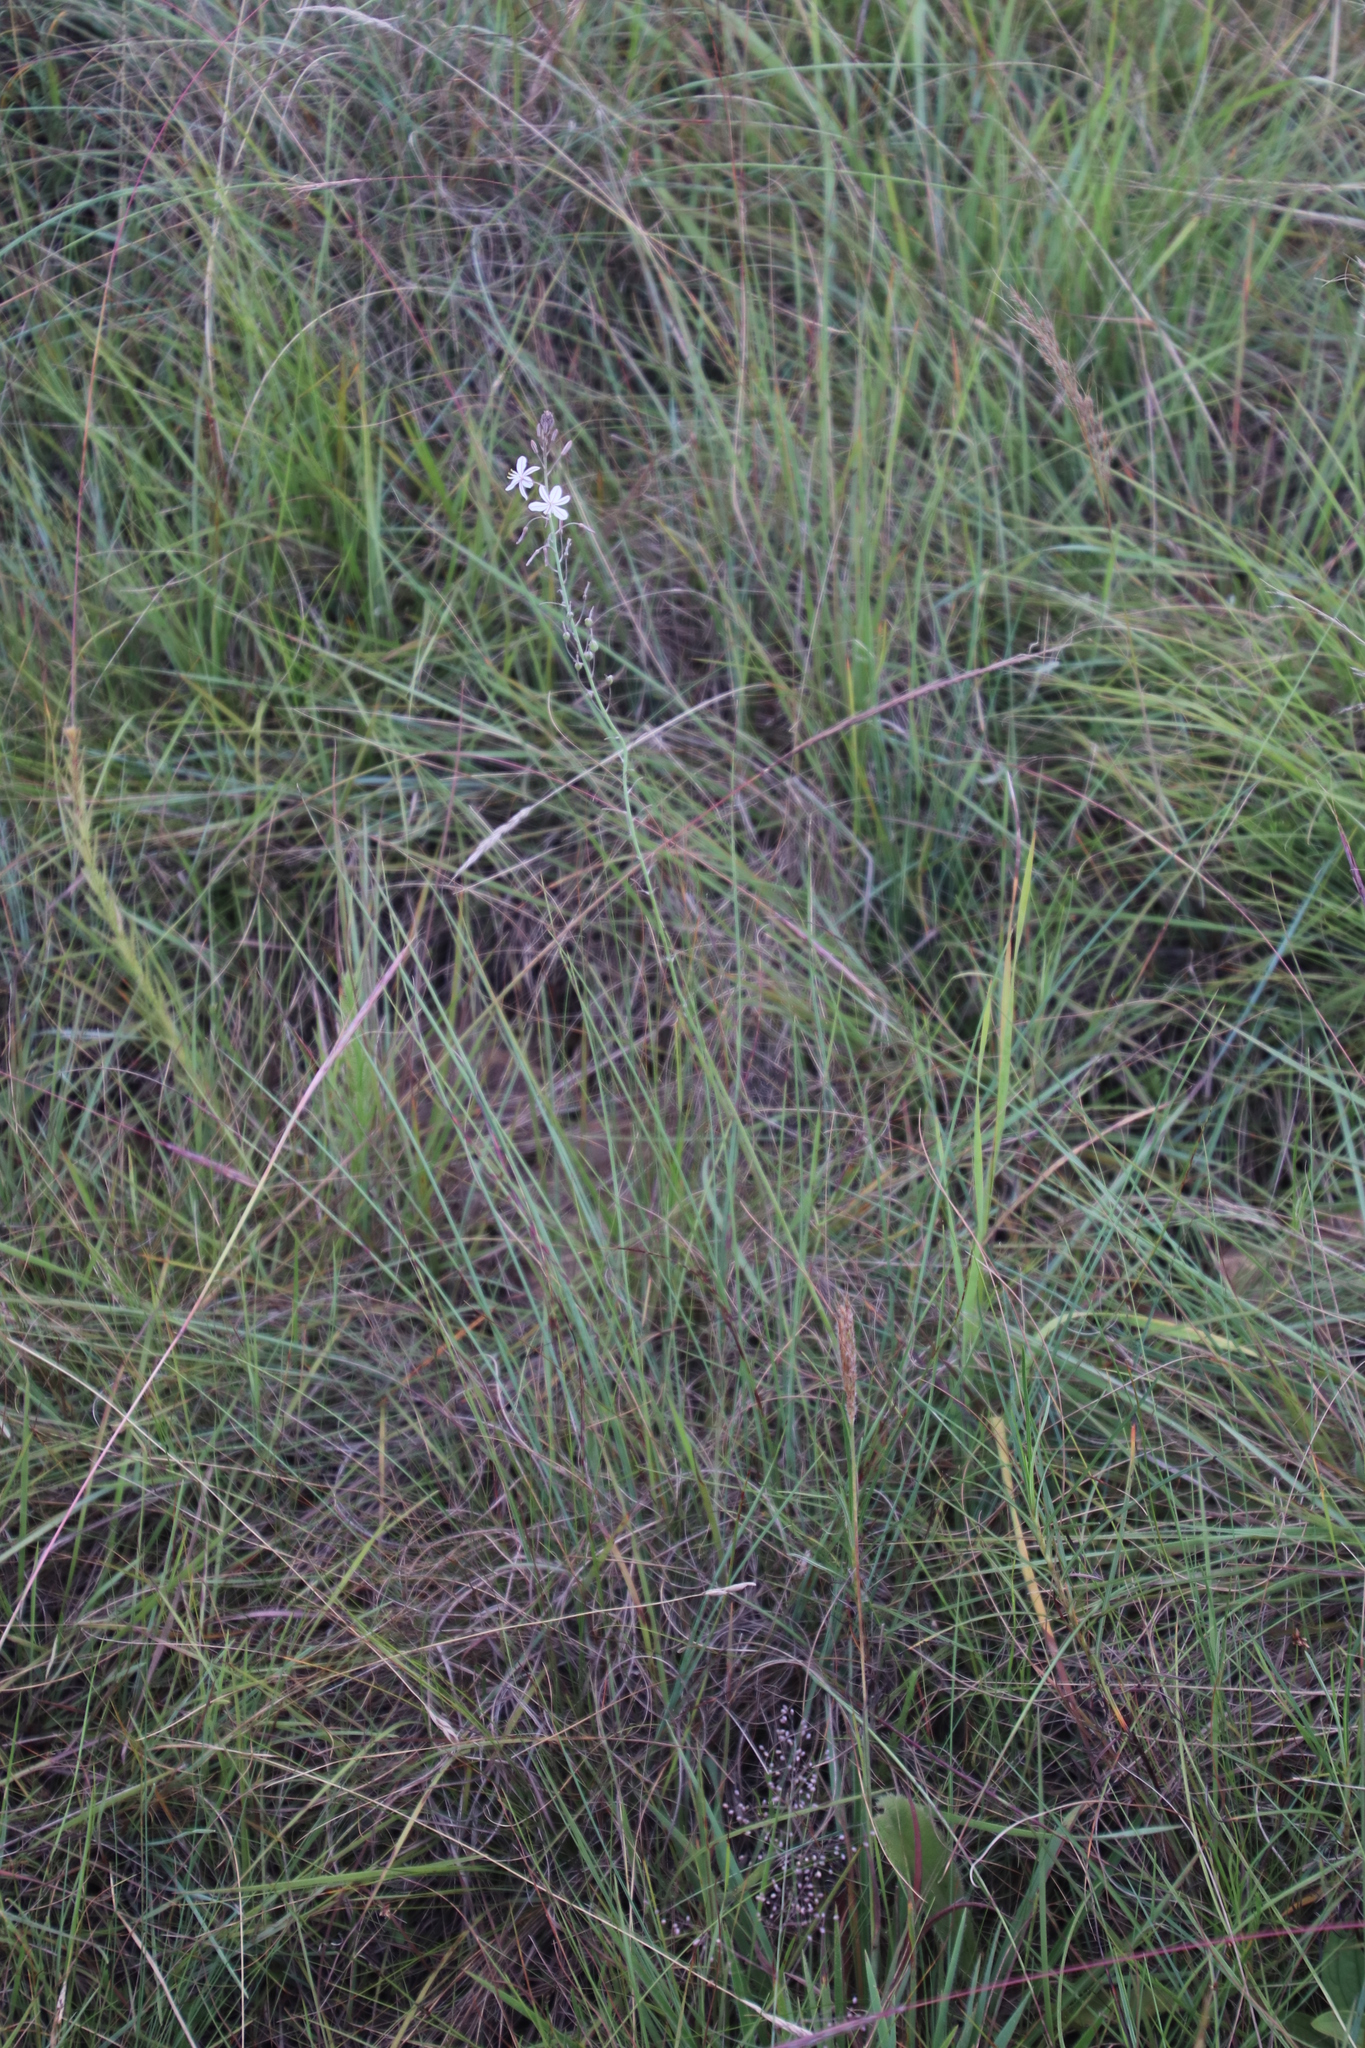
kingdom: Plantae
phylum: Tracheophyta
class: Liliopsida
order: Asparagales
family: Asphodelaceae
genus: Trachyandra
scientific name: Trachyandra saltii
